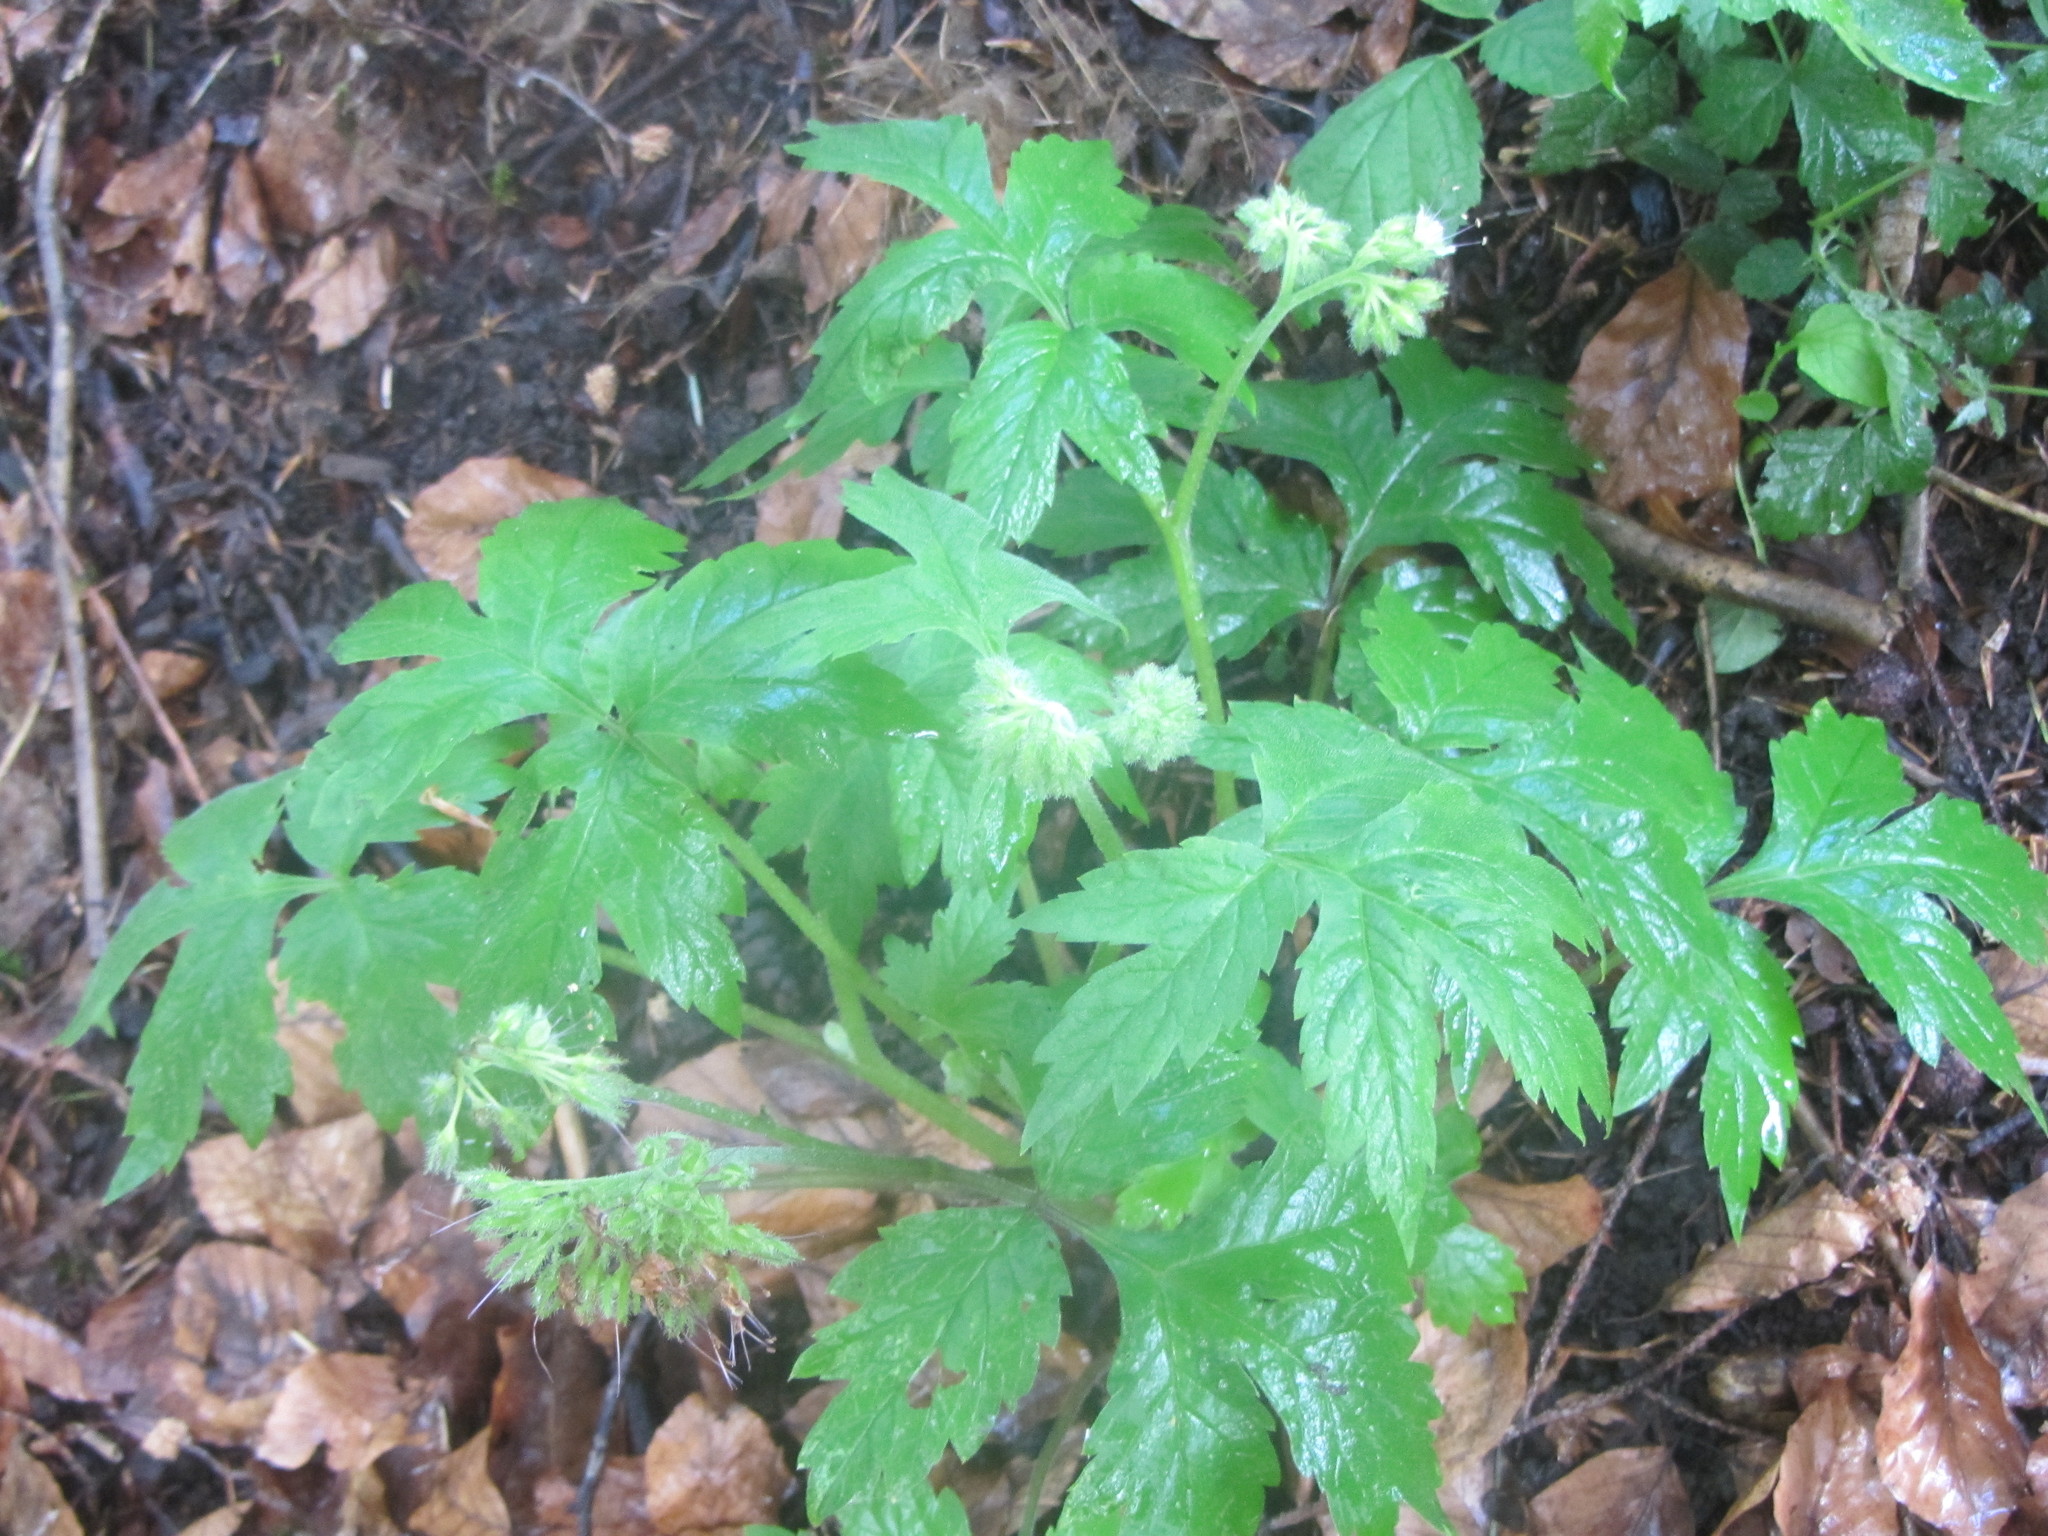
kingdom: Plantae
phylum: Tracheophyta
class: Magnoliopsida
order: Boraginales
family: Hydrophyllaceae
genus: Hydrophyllum
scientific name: Hydrophyllum tenuipes
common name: Pacific waterleaf
